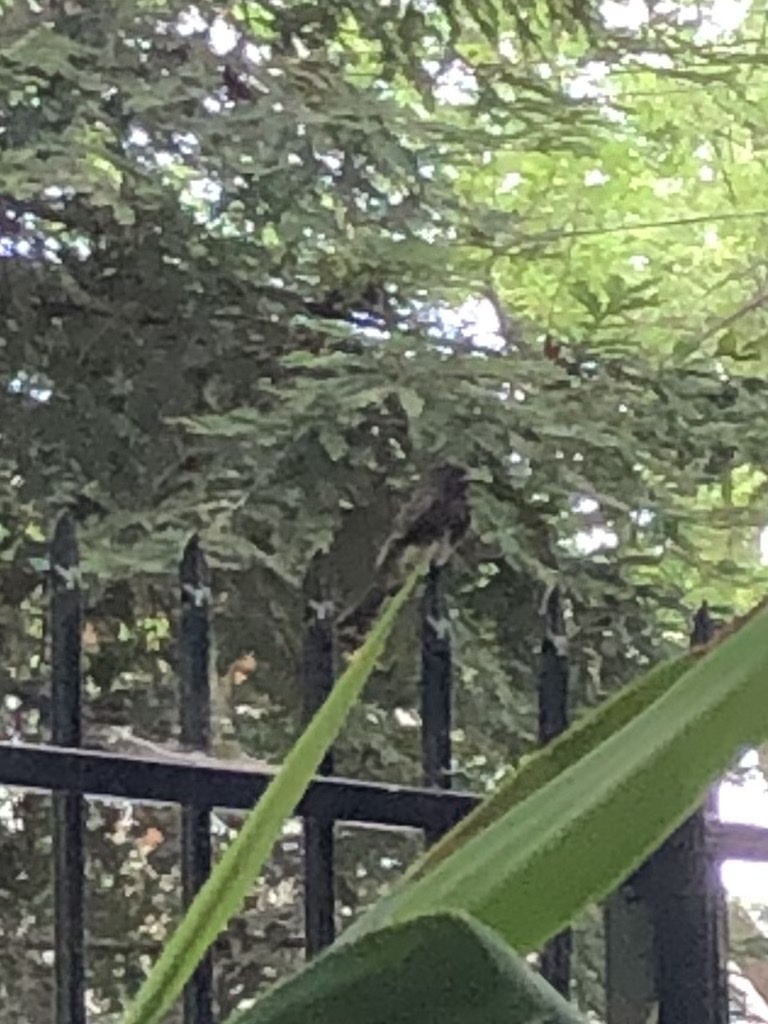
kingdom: Animalia
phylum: Chordata
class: Aves
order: Passeriformes
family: Tyrannidae
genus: Sayornis
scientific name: Sayornis nigricans
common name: Black phoebe
